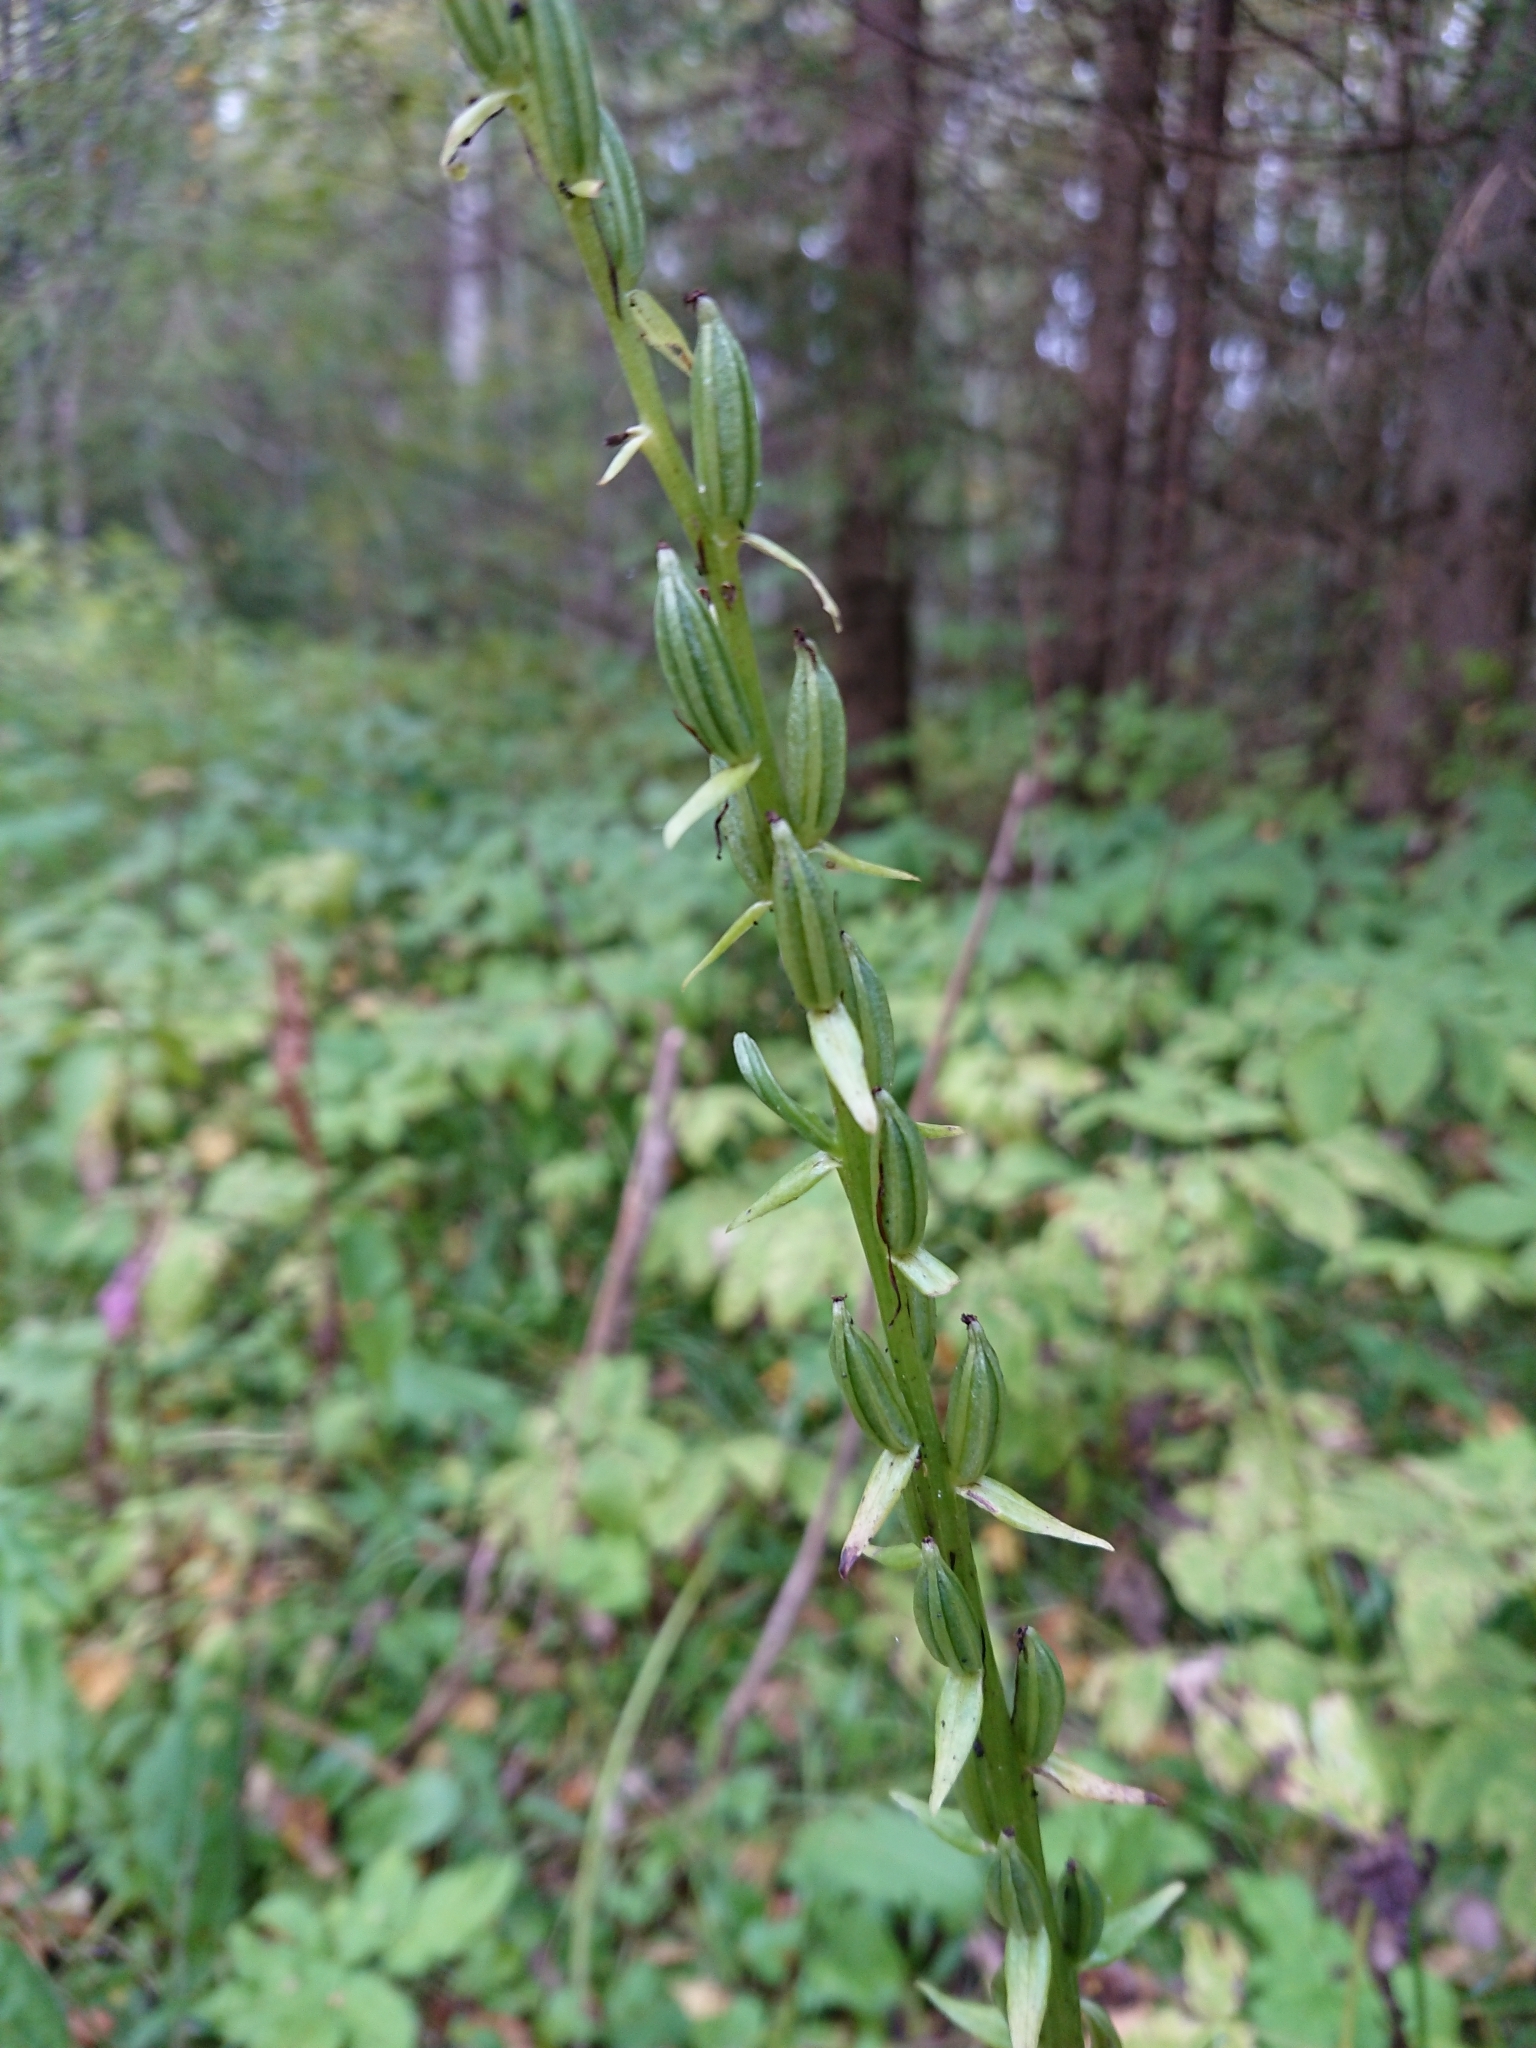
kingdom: Plantae
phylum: Tracheophyta
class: Liliopsida
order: Asparagales
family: Orchidaceae
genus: Platanthera
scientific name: Platanthera bifolia
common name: Lesser butterfly-orchid
